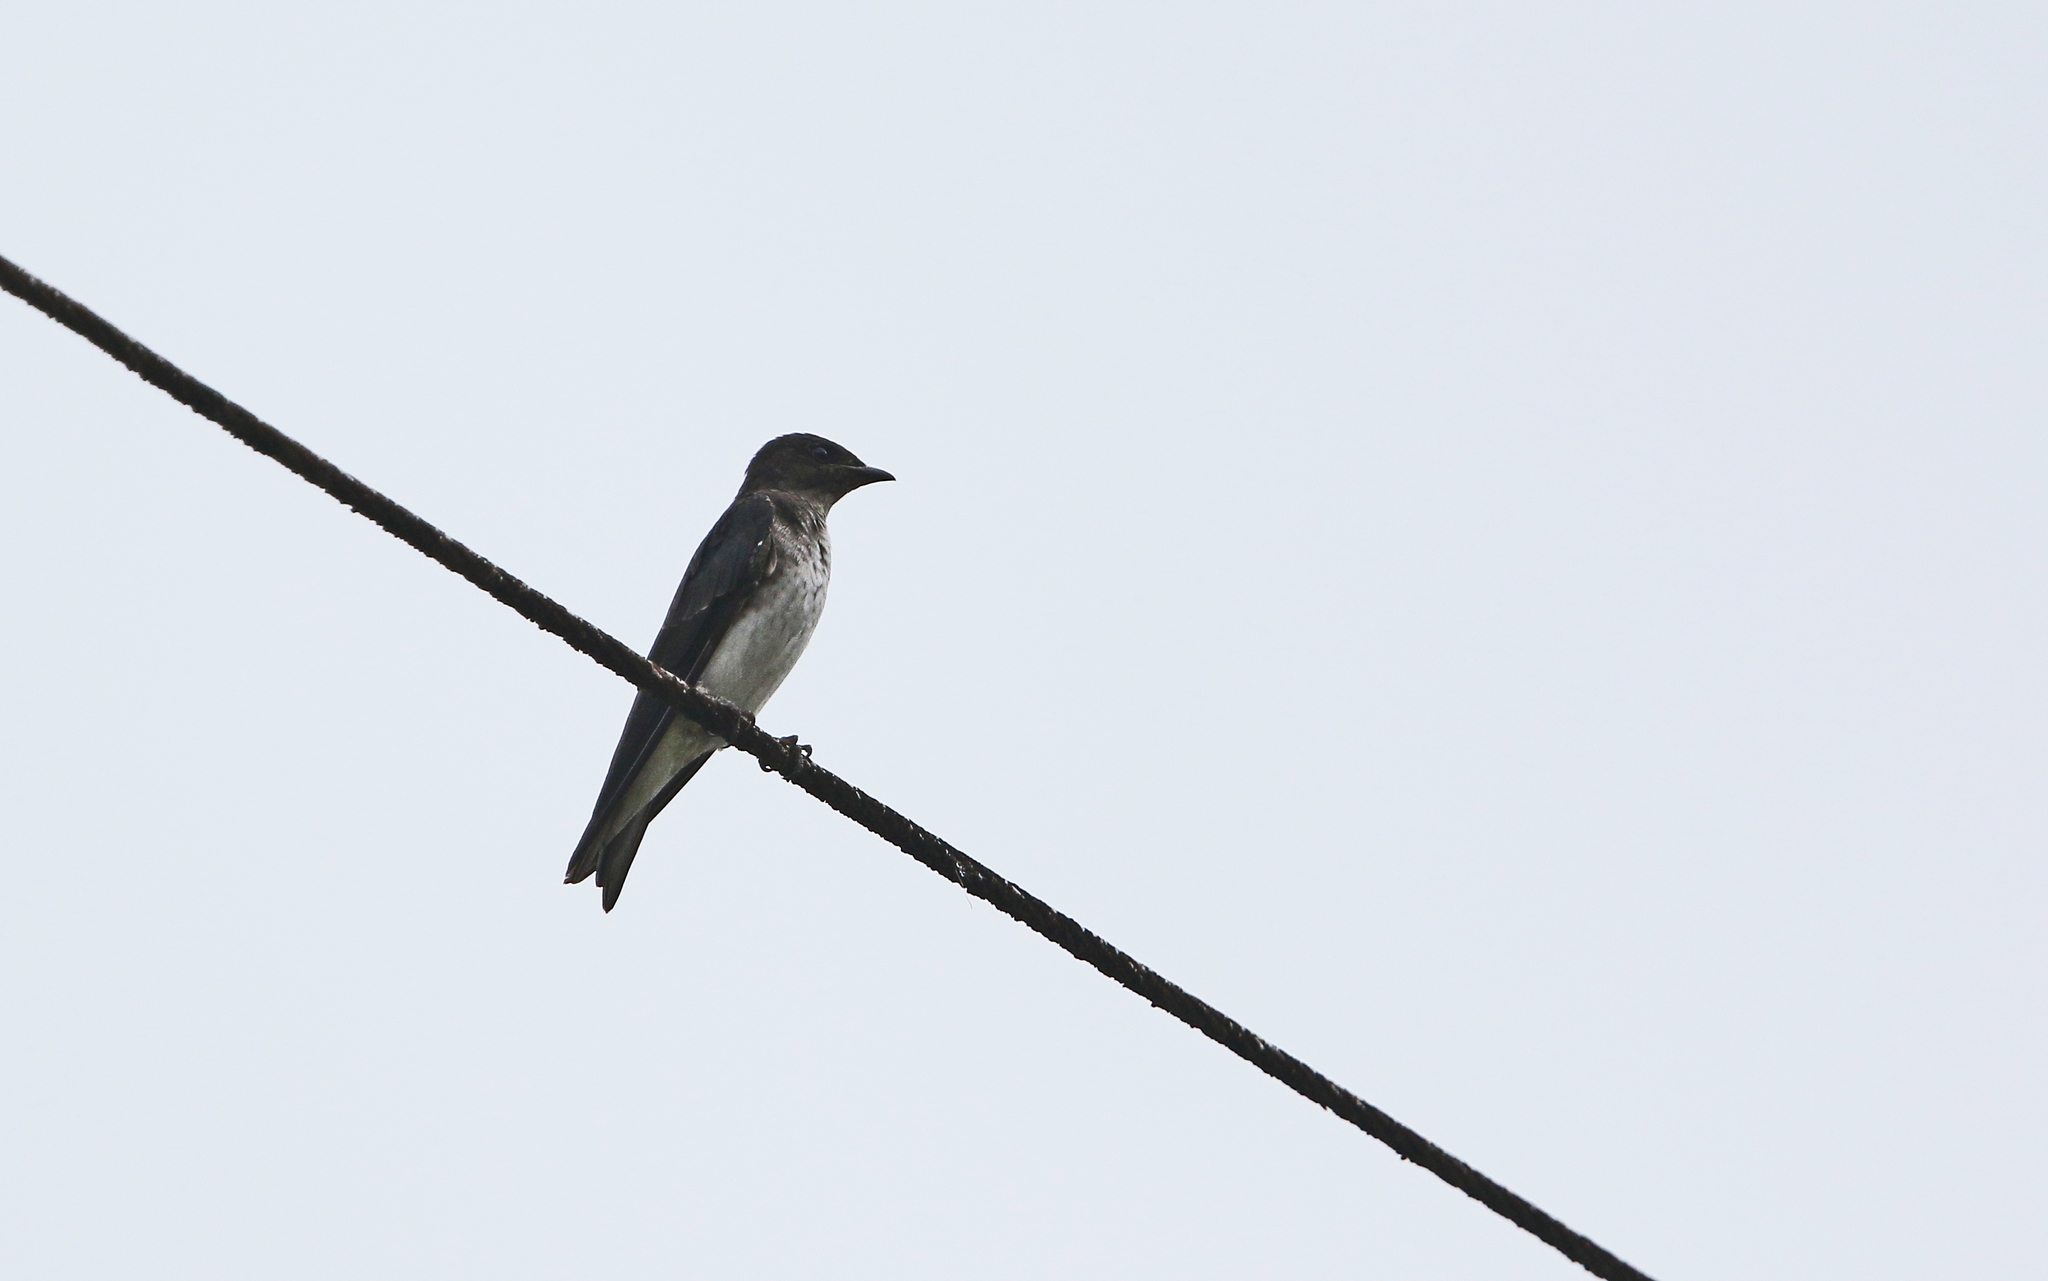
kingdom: Animalia
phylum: Chordata
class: Aves
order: Passeriformes
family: Hirundinidae
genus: Progne
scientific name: Progne chalybea
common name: Grey-breasted martin
